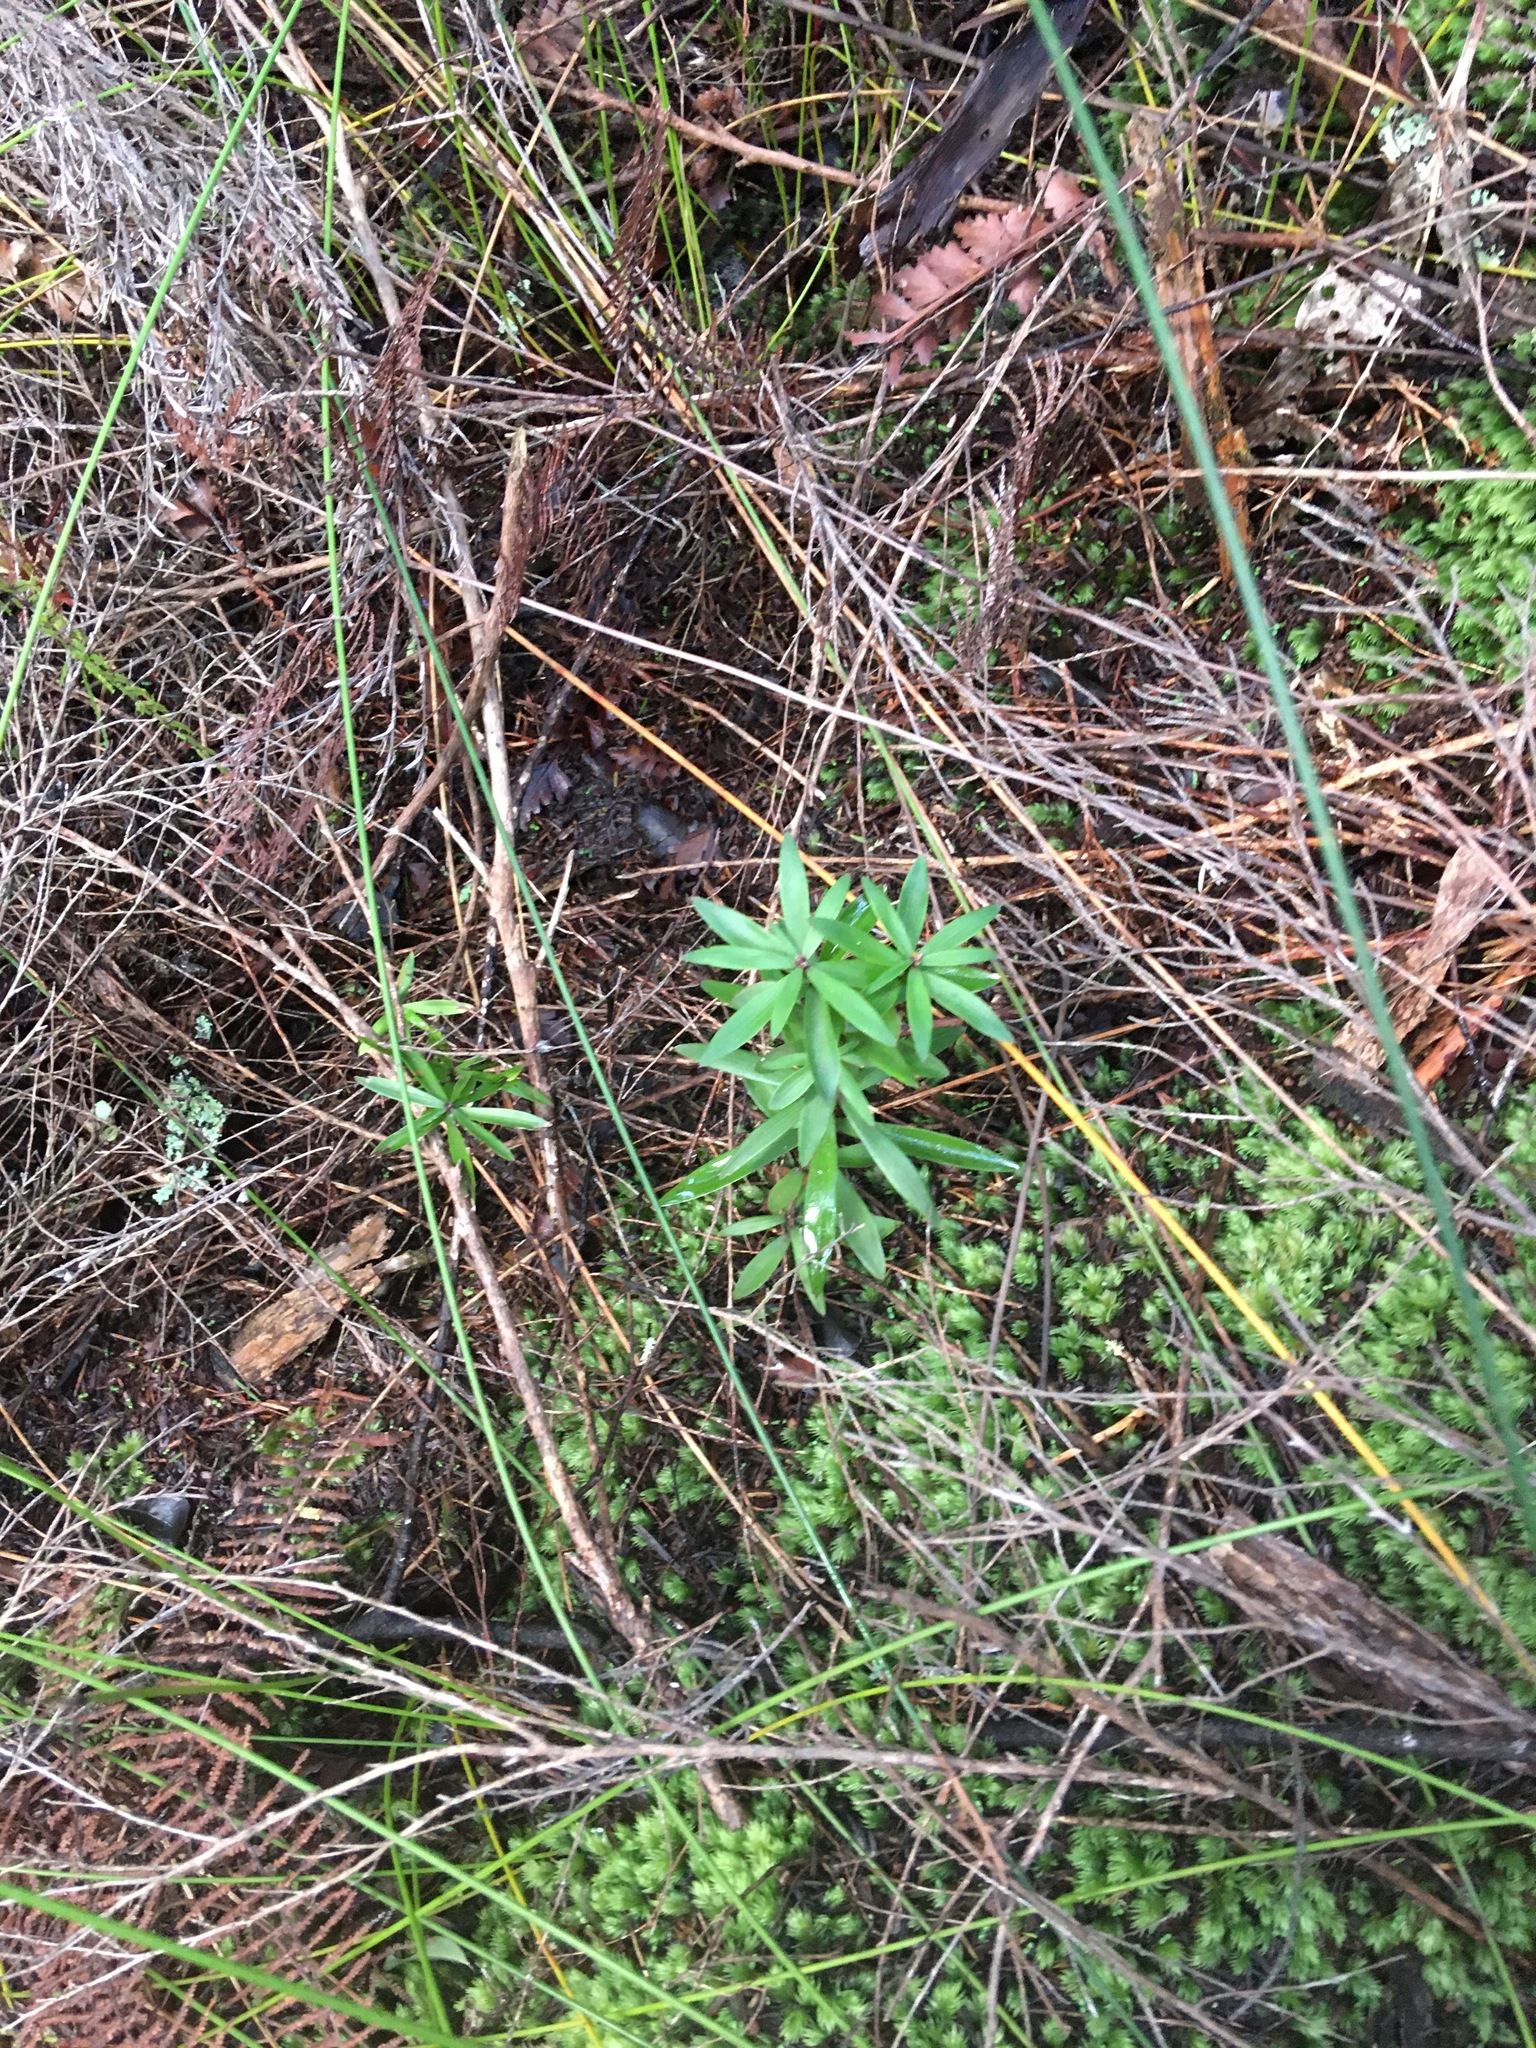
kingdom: Plantae
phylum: Tracheophyta
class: Magnoliopsida
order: Ericales
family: Ericaceae
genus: Leucopogon
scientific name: Leucopogon fasciculatus
